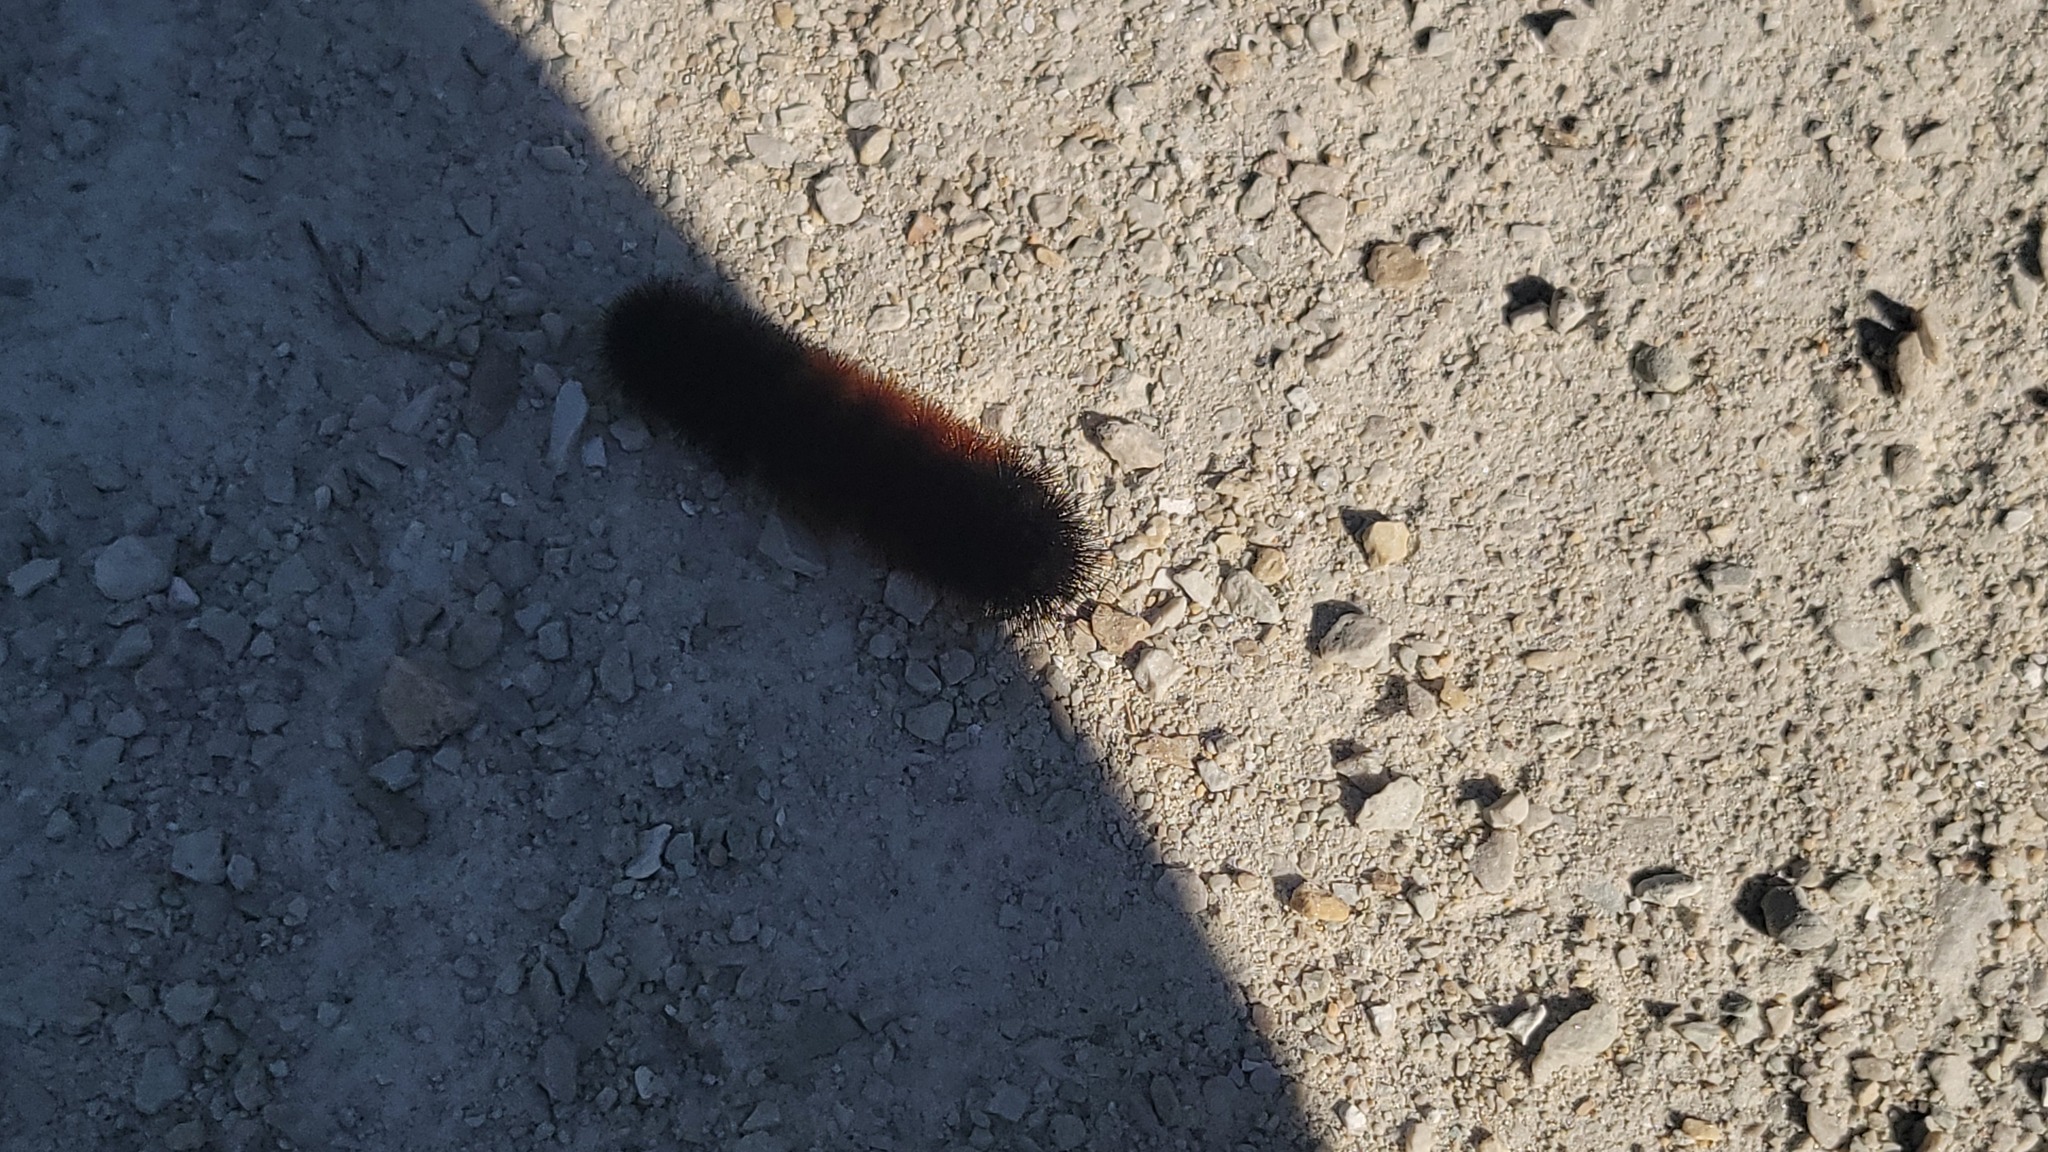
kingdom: Animalia
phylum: Arthropoda
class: Insecta
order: Lepidoptera
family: Erebidae
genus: Pyrrharctia
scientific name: Pyrrharctia isabella
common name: Isabella tiger moth
